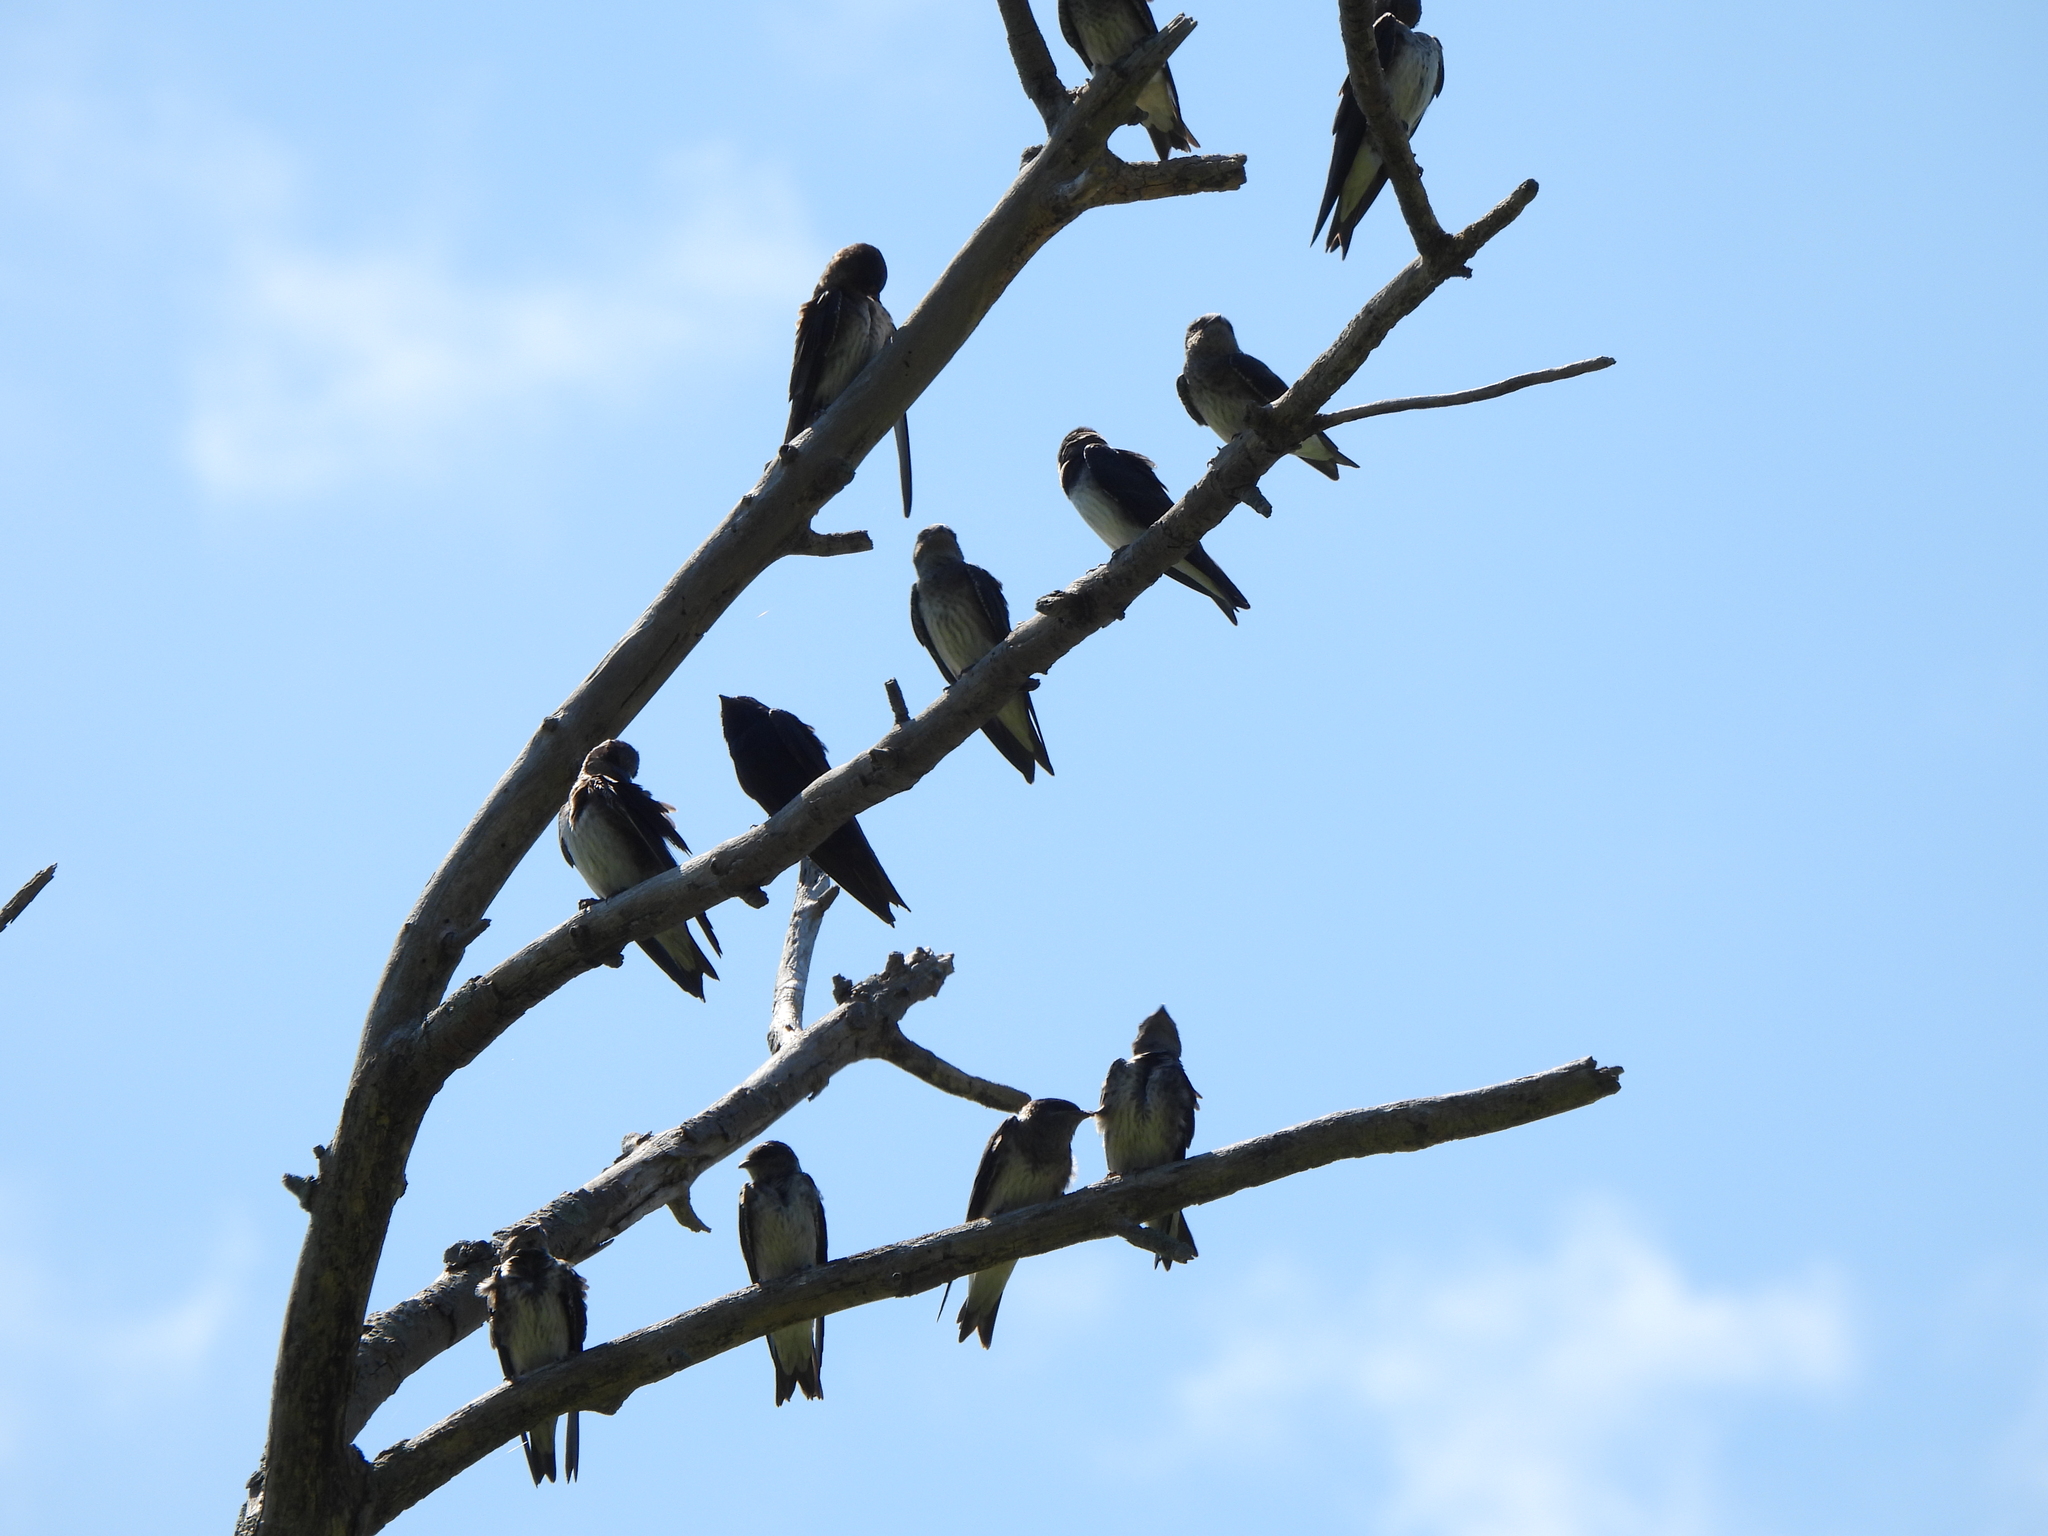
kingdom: Animalia
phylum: Chordata
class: Aves
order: Passeriformes
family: Hirundinidae
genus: Progne
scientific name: Progne subis
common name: Purple martin
